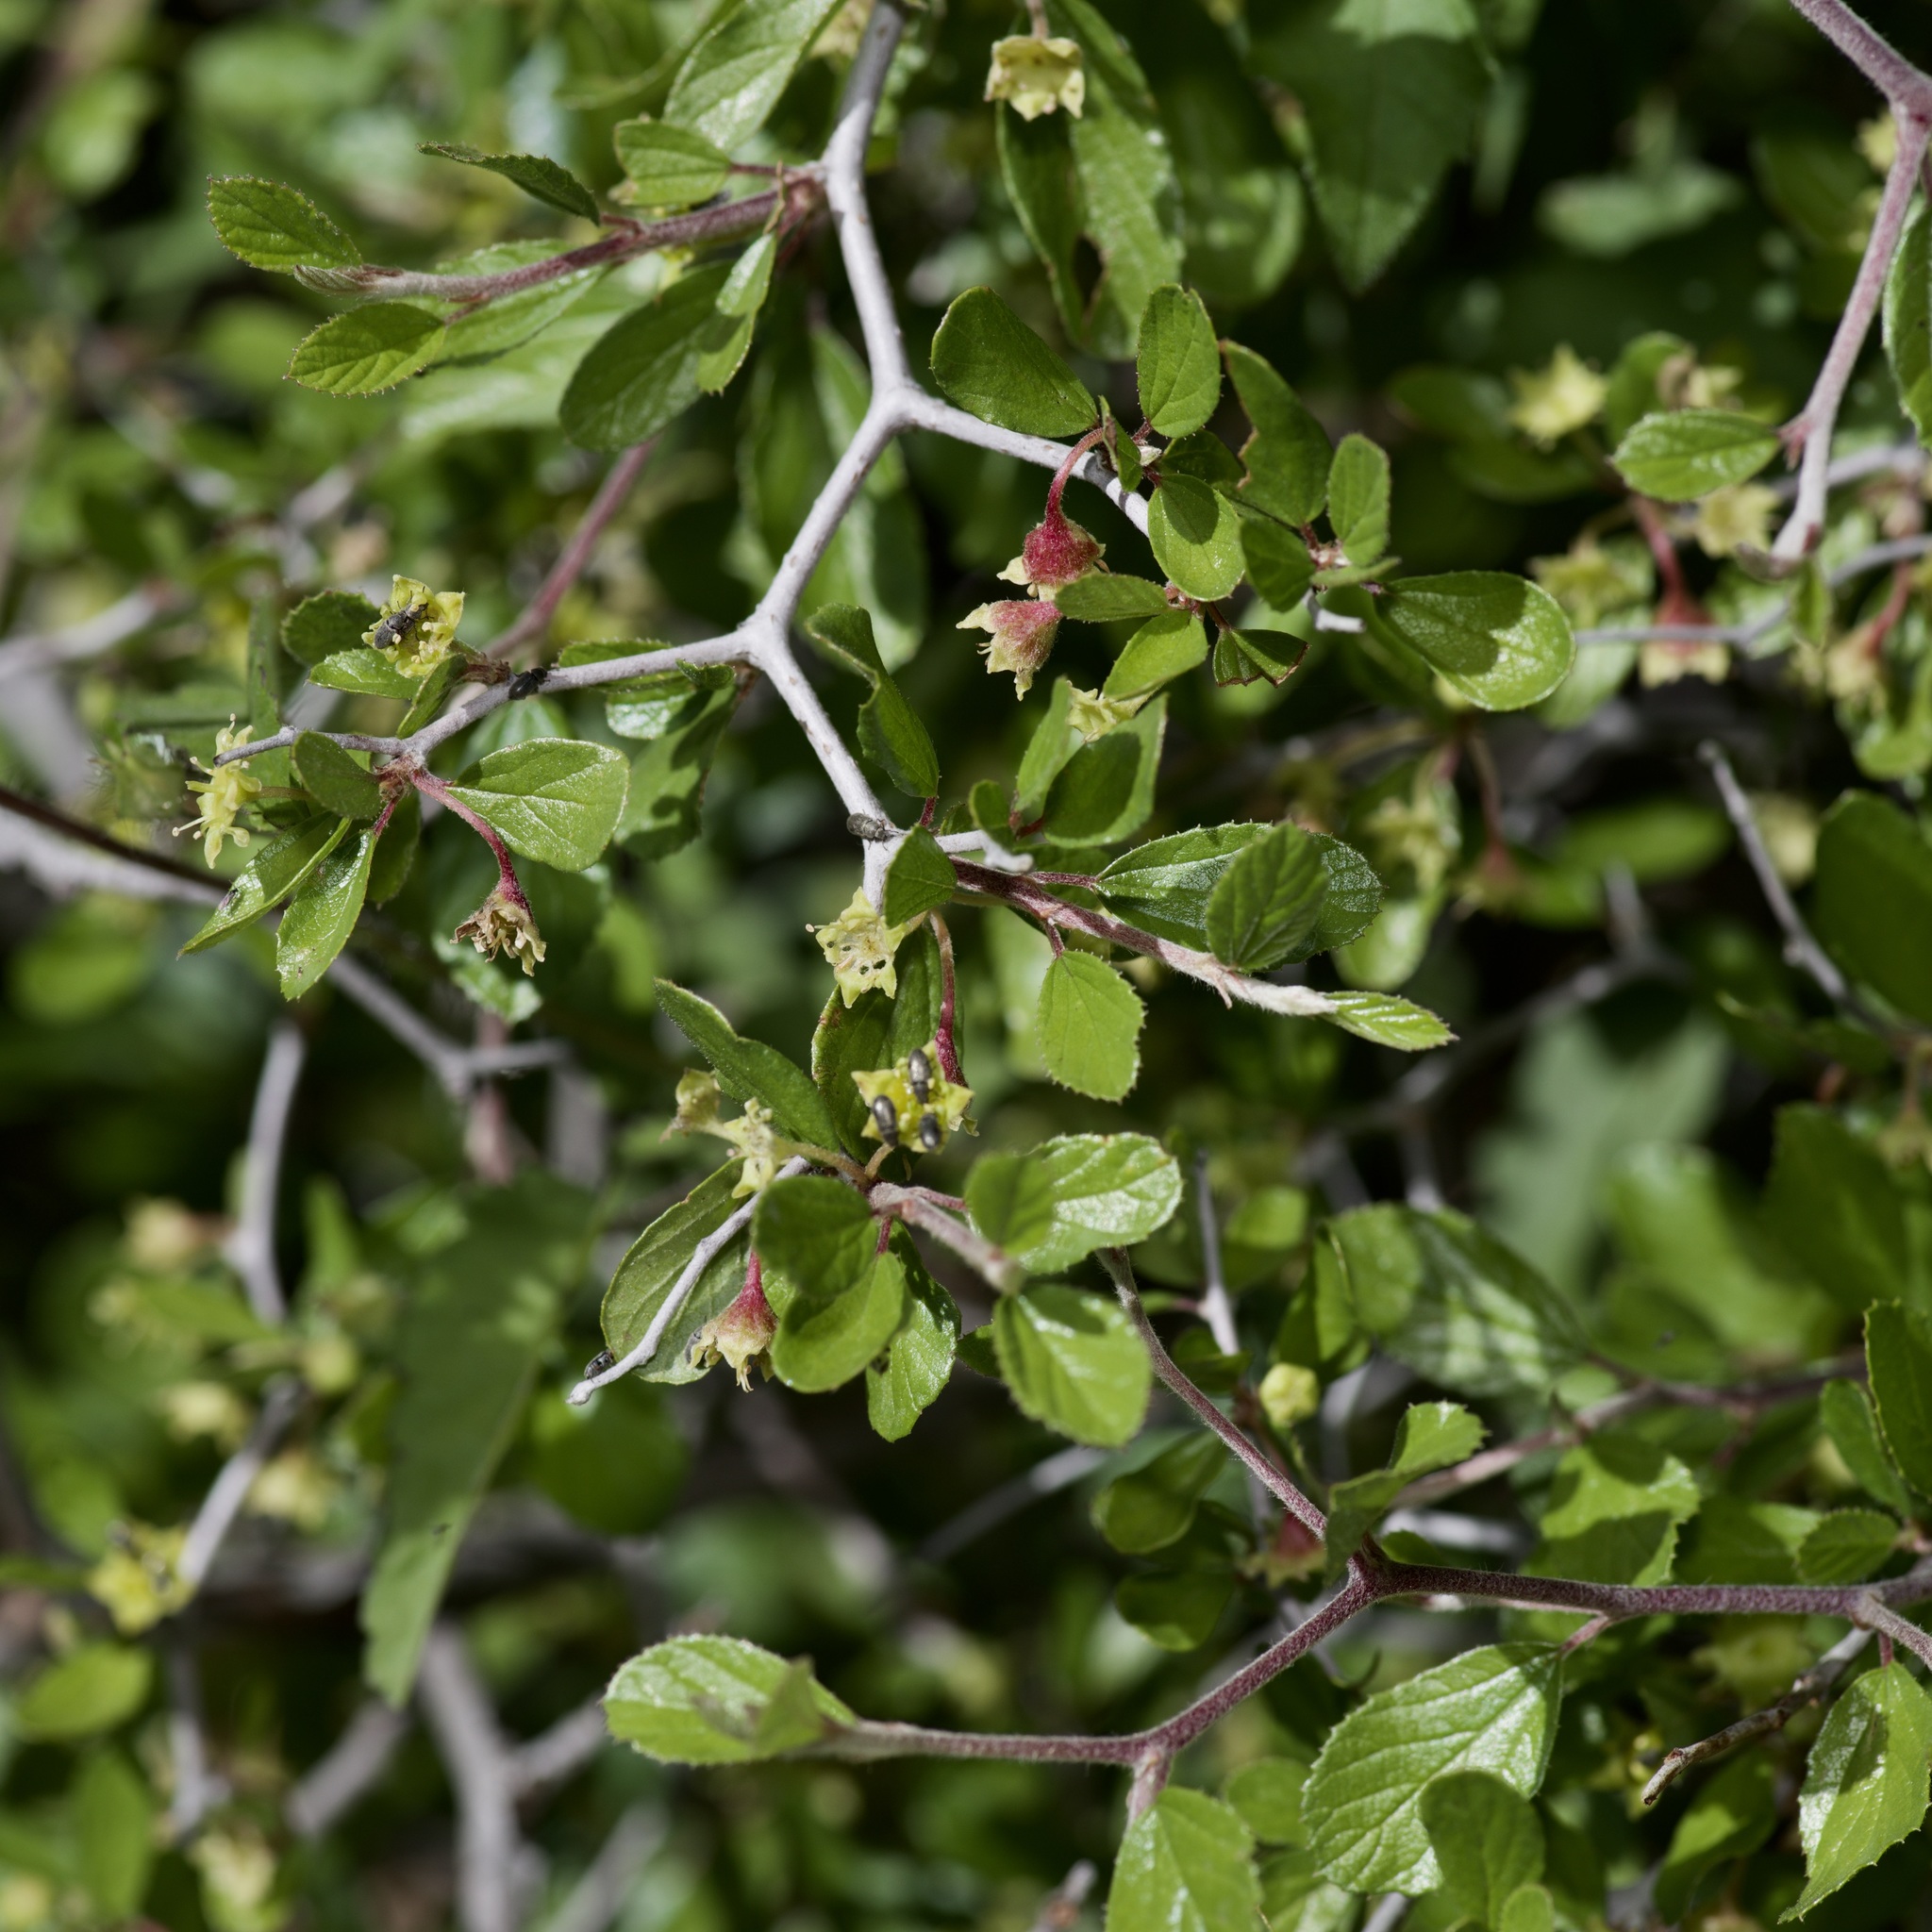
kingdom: Plantae
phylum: Tracheophyta
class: Magnoliopsida
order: Rosales
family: Rhamnaceae
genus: Colubrina
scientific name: Colubrina texensis
